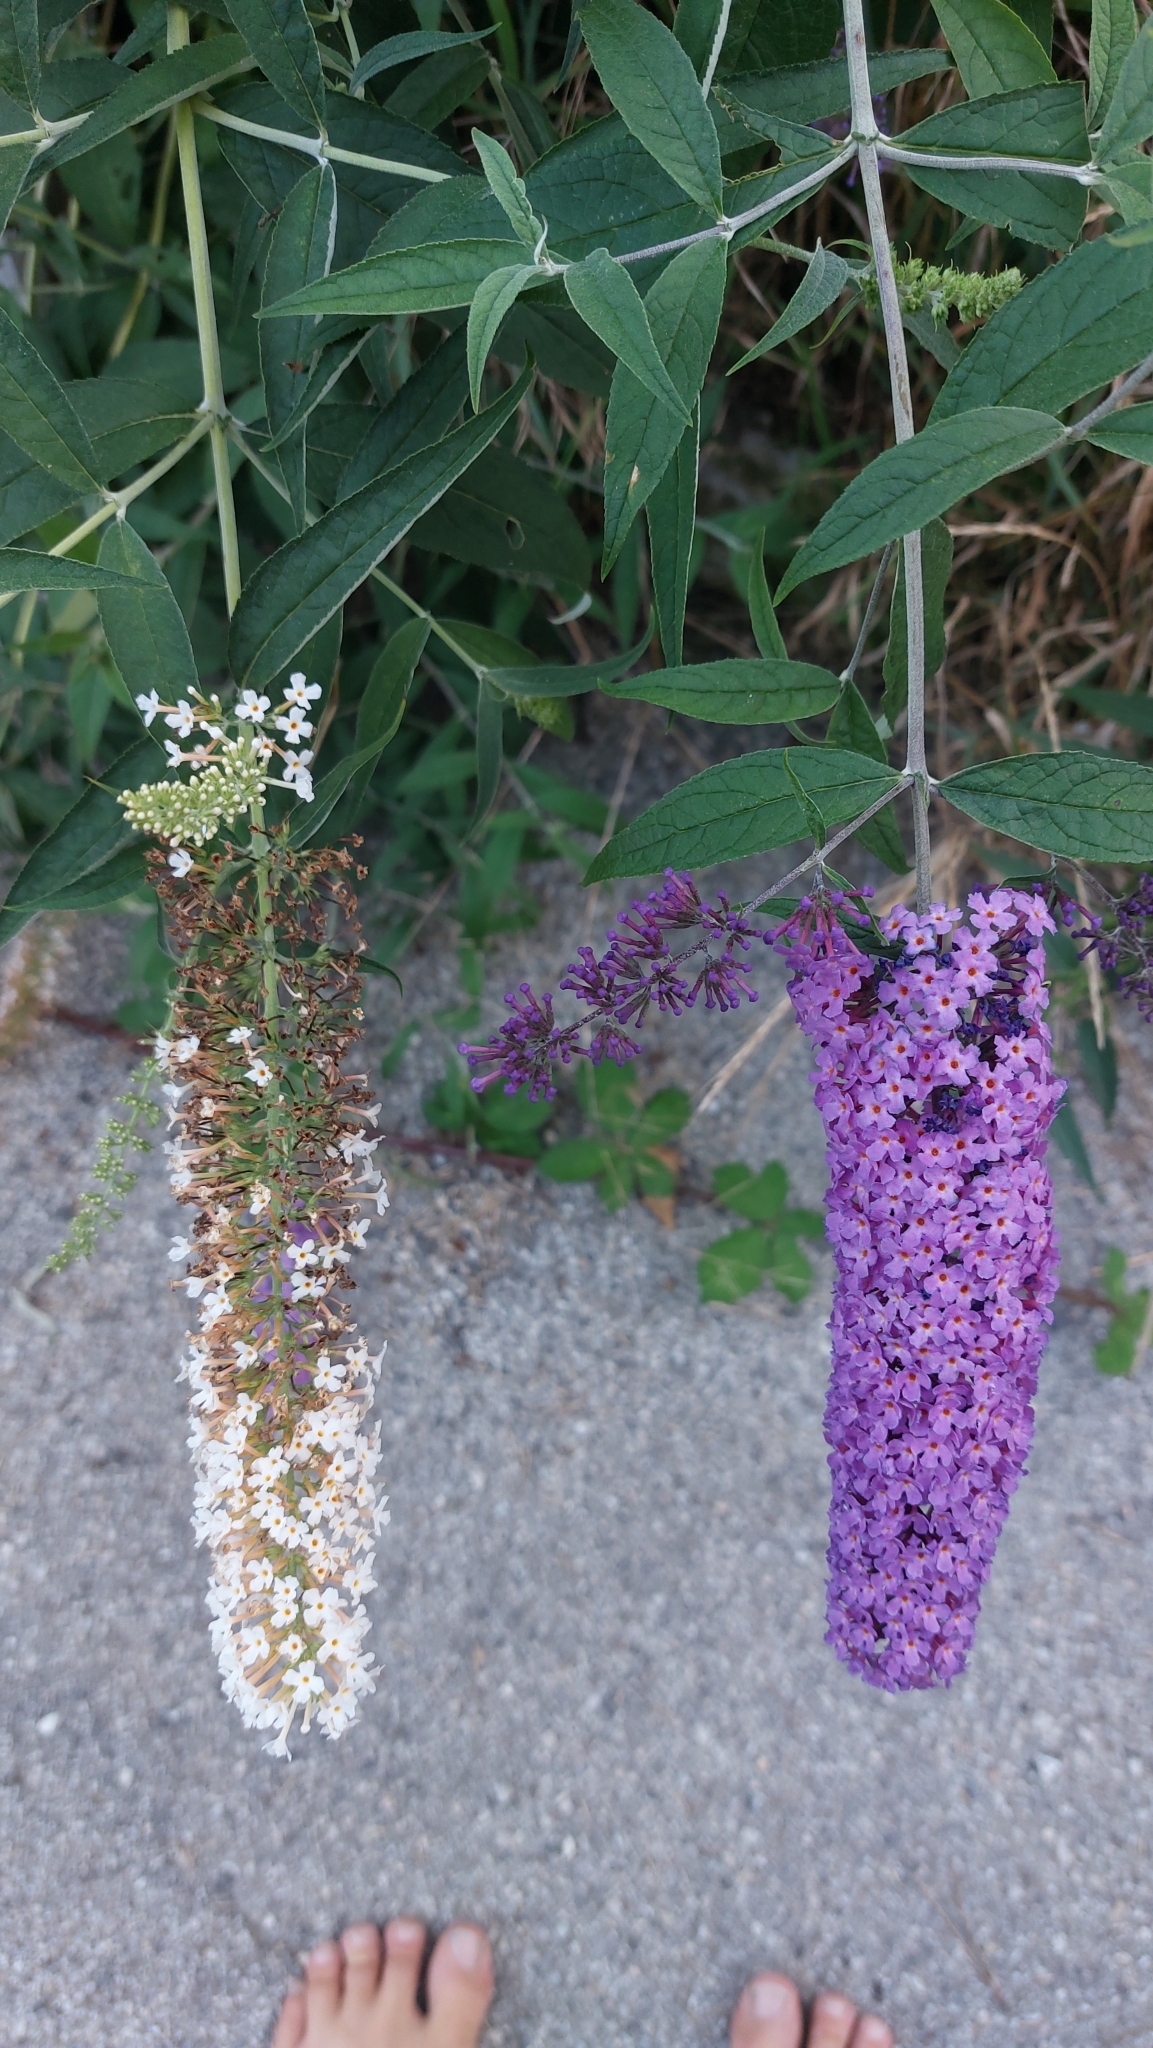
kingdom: Plantae
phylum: Tracheophyta
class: Magnoliopsida
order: Lamiales
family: Scrophulariaceae
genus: Buddleja
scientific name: Buddleja davidii
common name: Butterfly-bush
